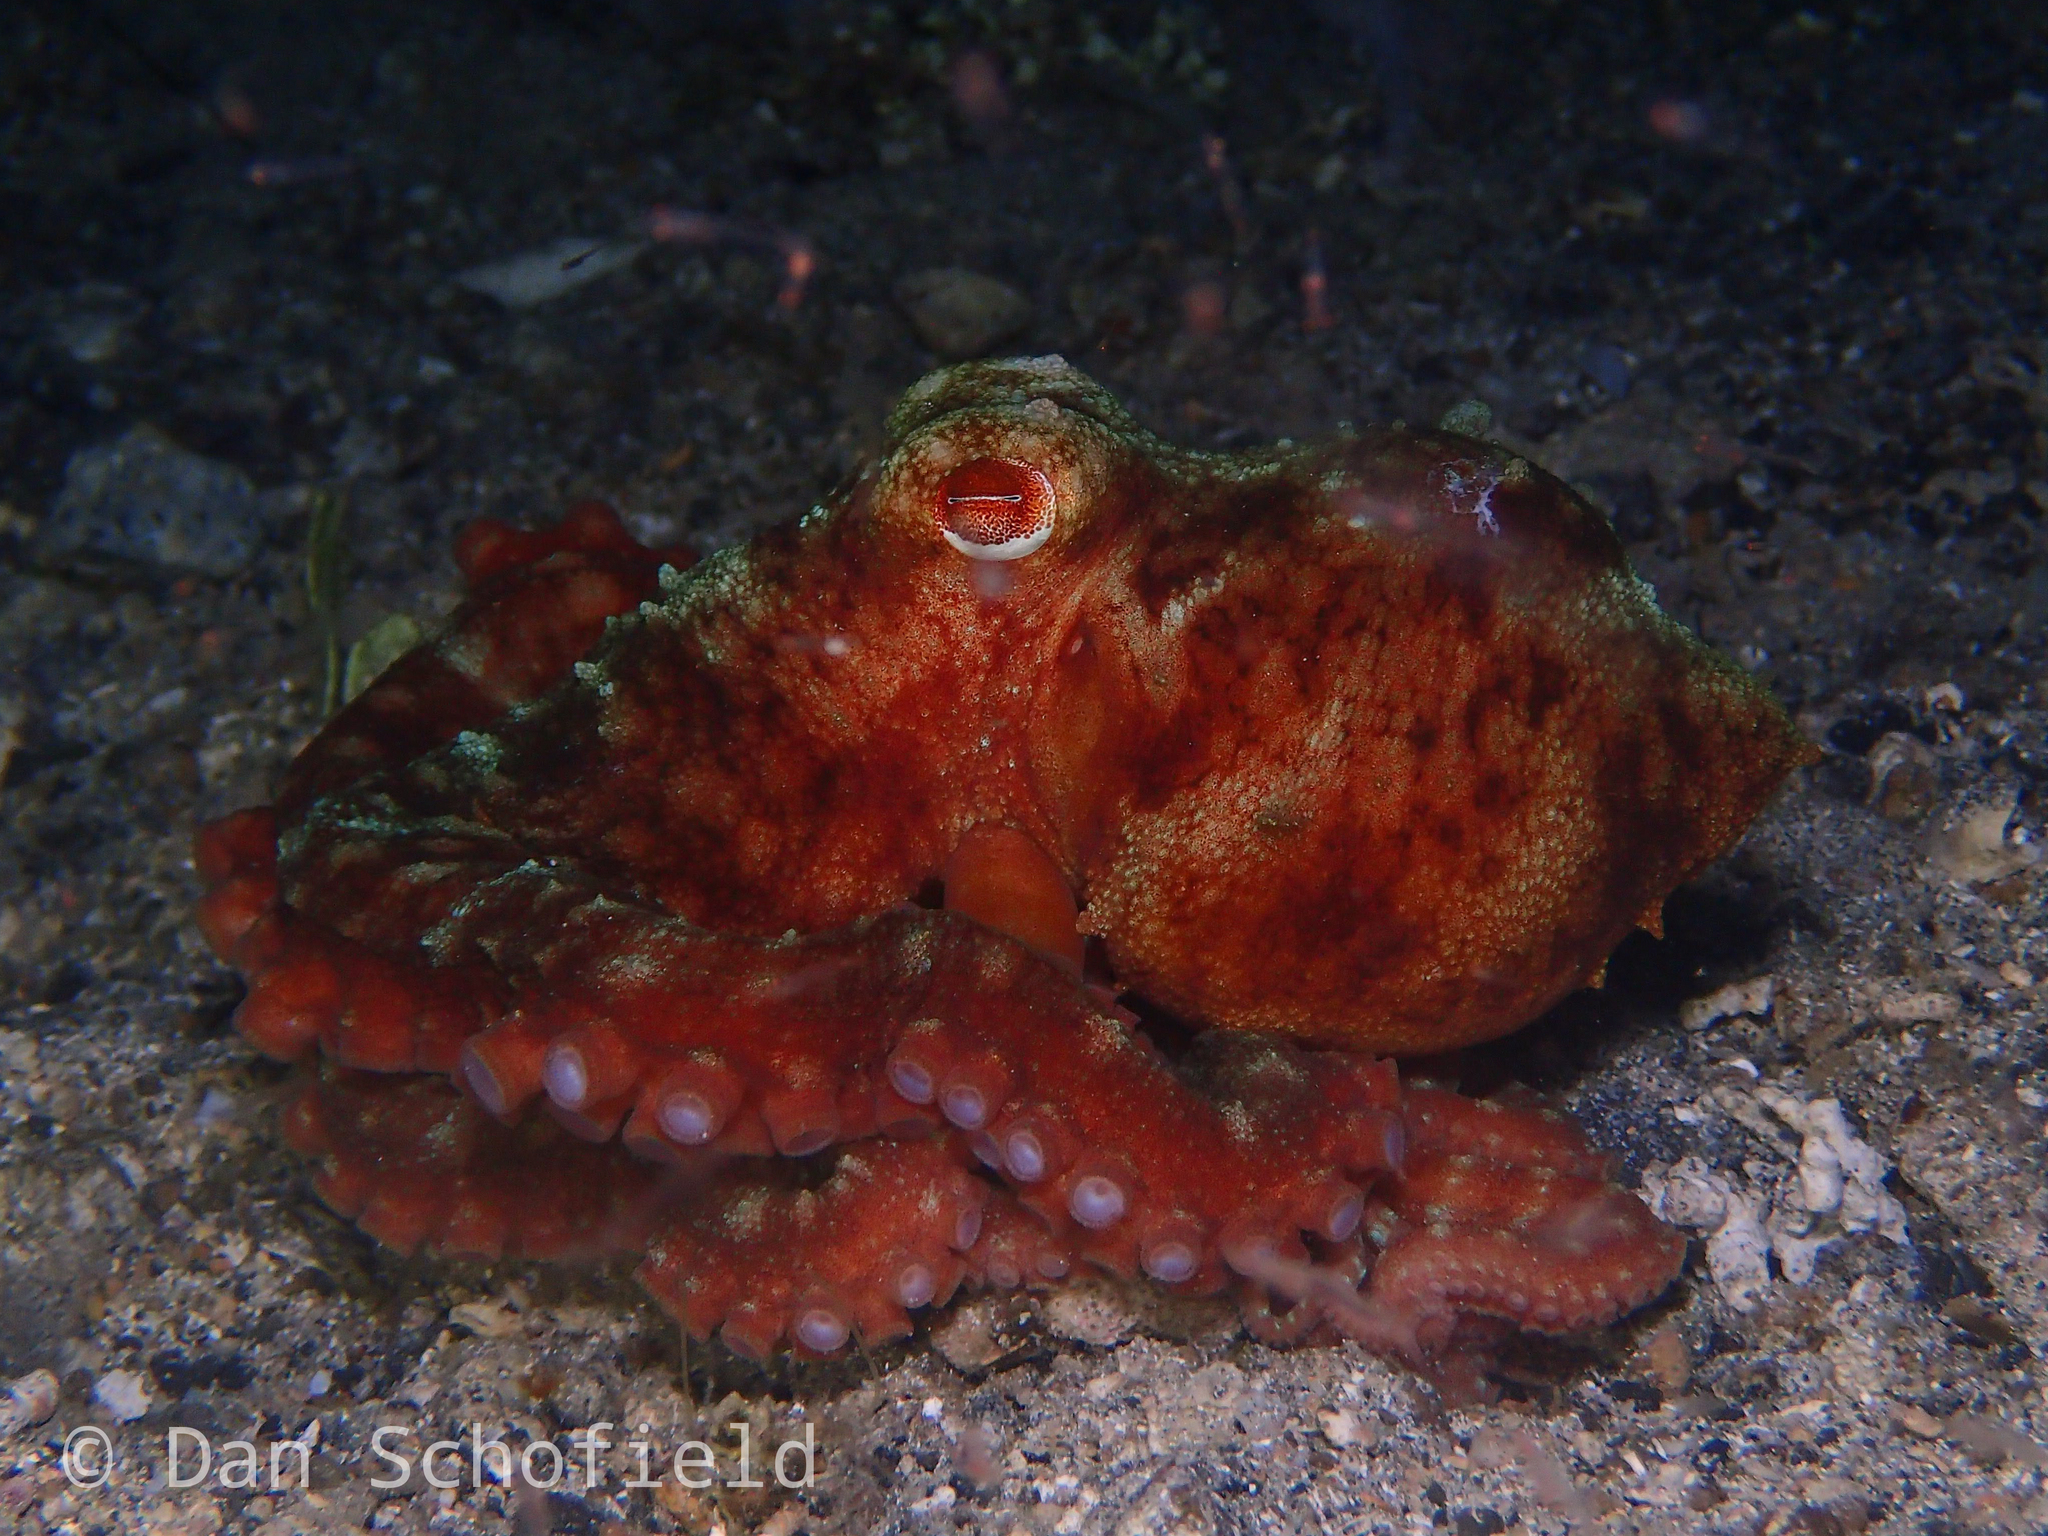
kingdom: Animalia
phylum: Mollusca
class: Cephalopoda
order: Octopoda
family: Octopodidae
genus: Callistoctopus
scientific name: Callistoctopus luteus
